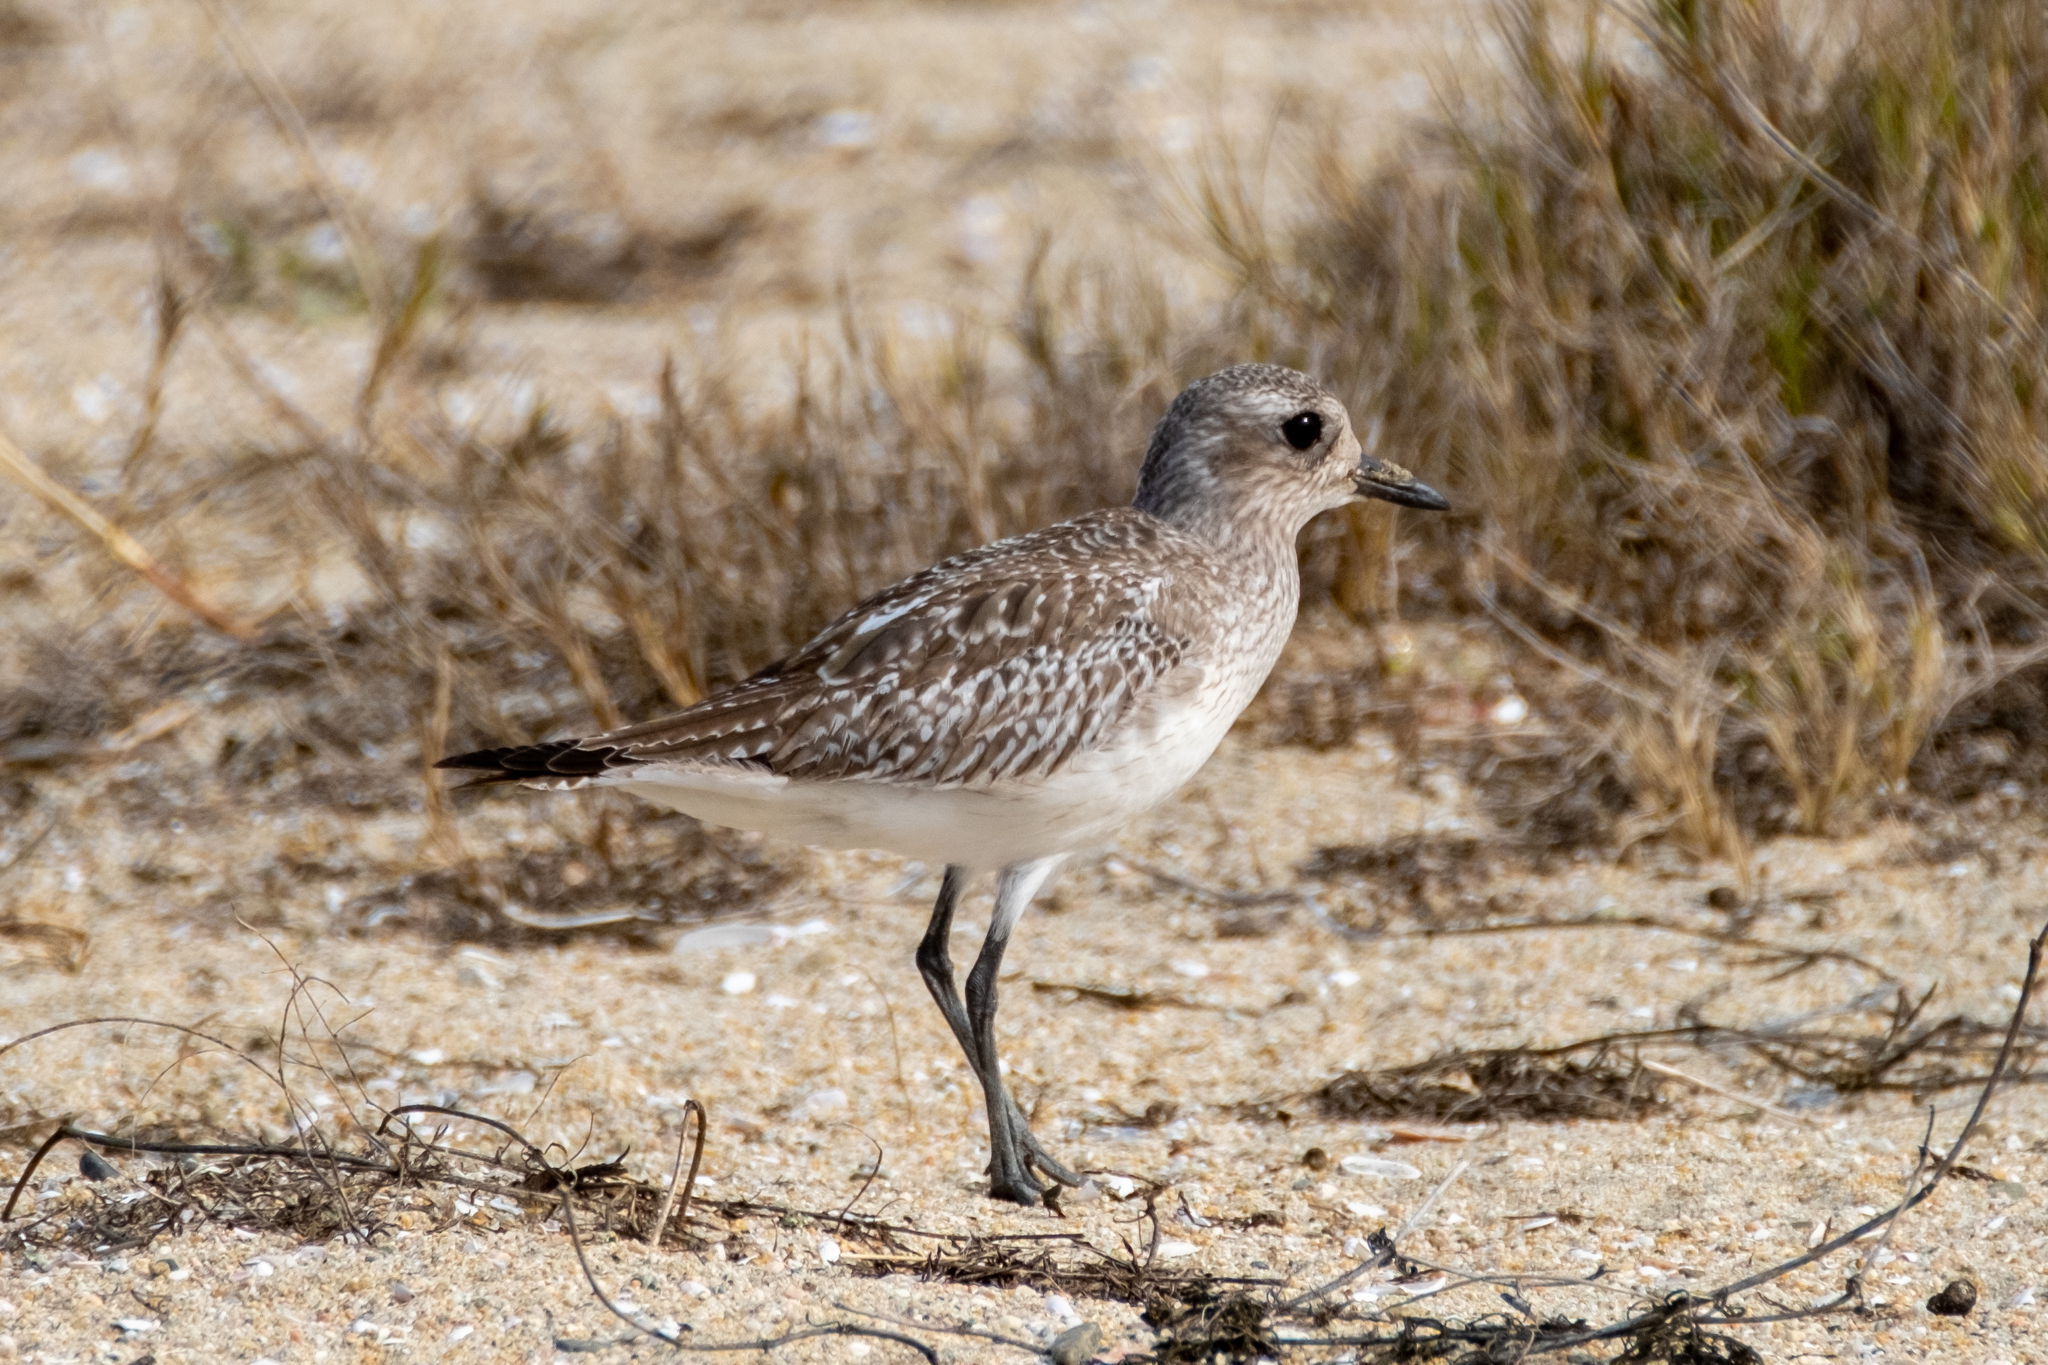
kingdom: Animalia
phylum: Chordata
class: Aves
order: Charadriiformes
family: Charadriidae
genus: Pluvialis
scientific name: Pluvialis squatarola
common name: Grey plover
